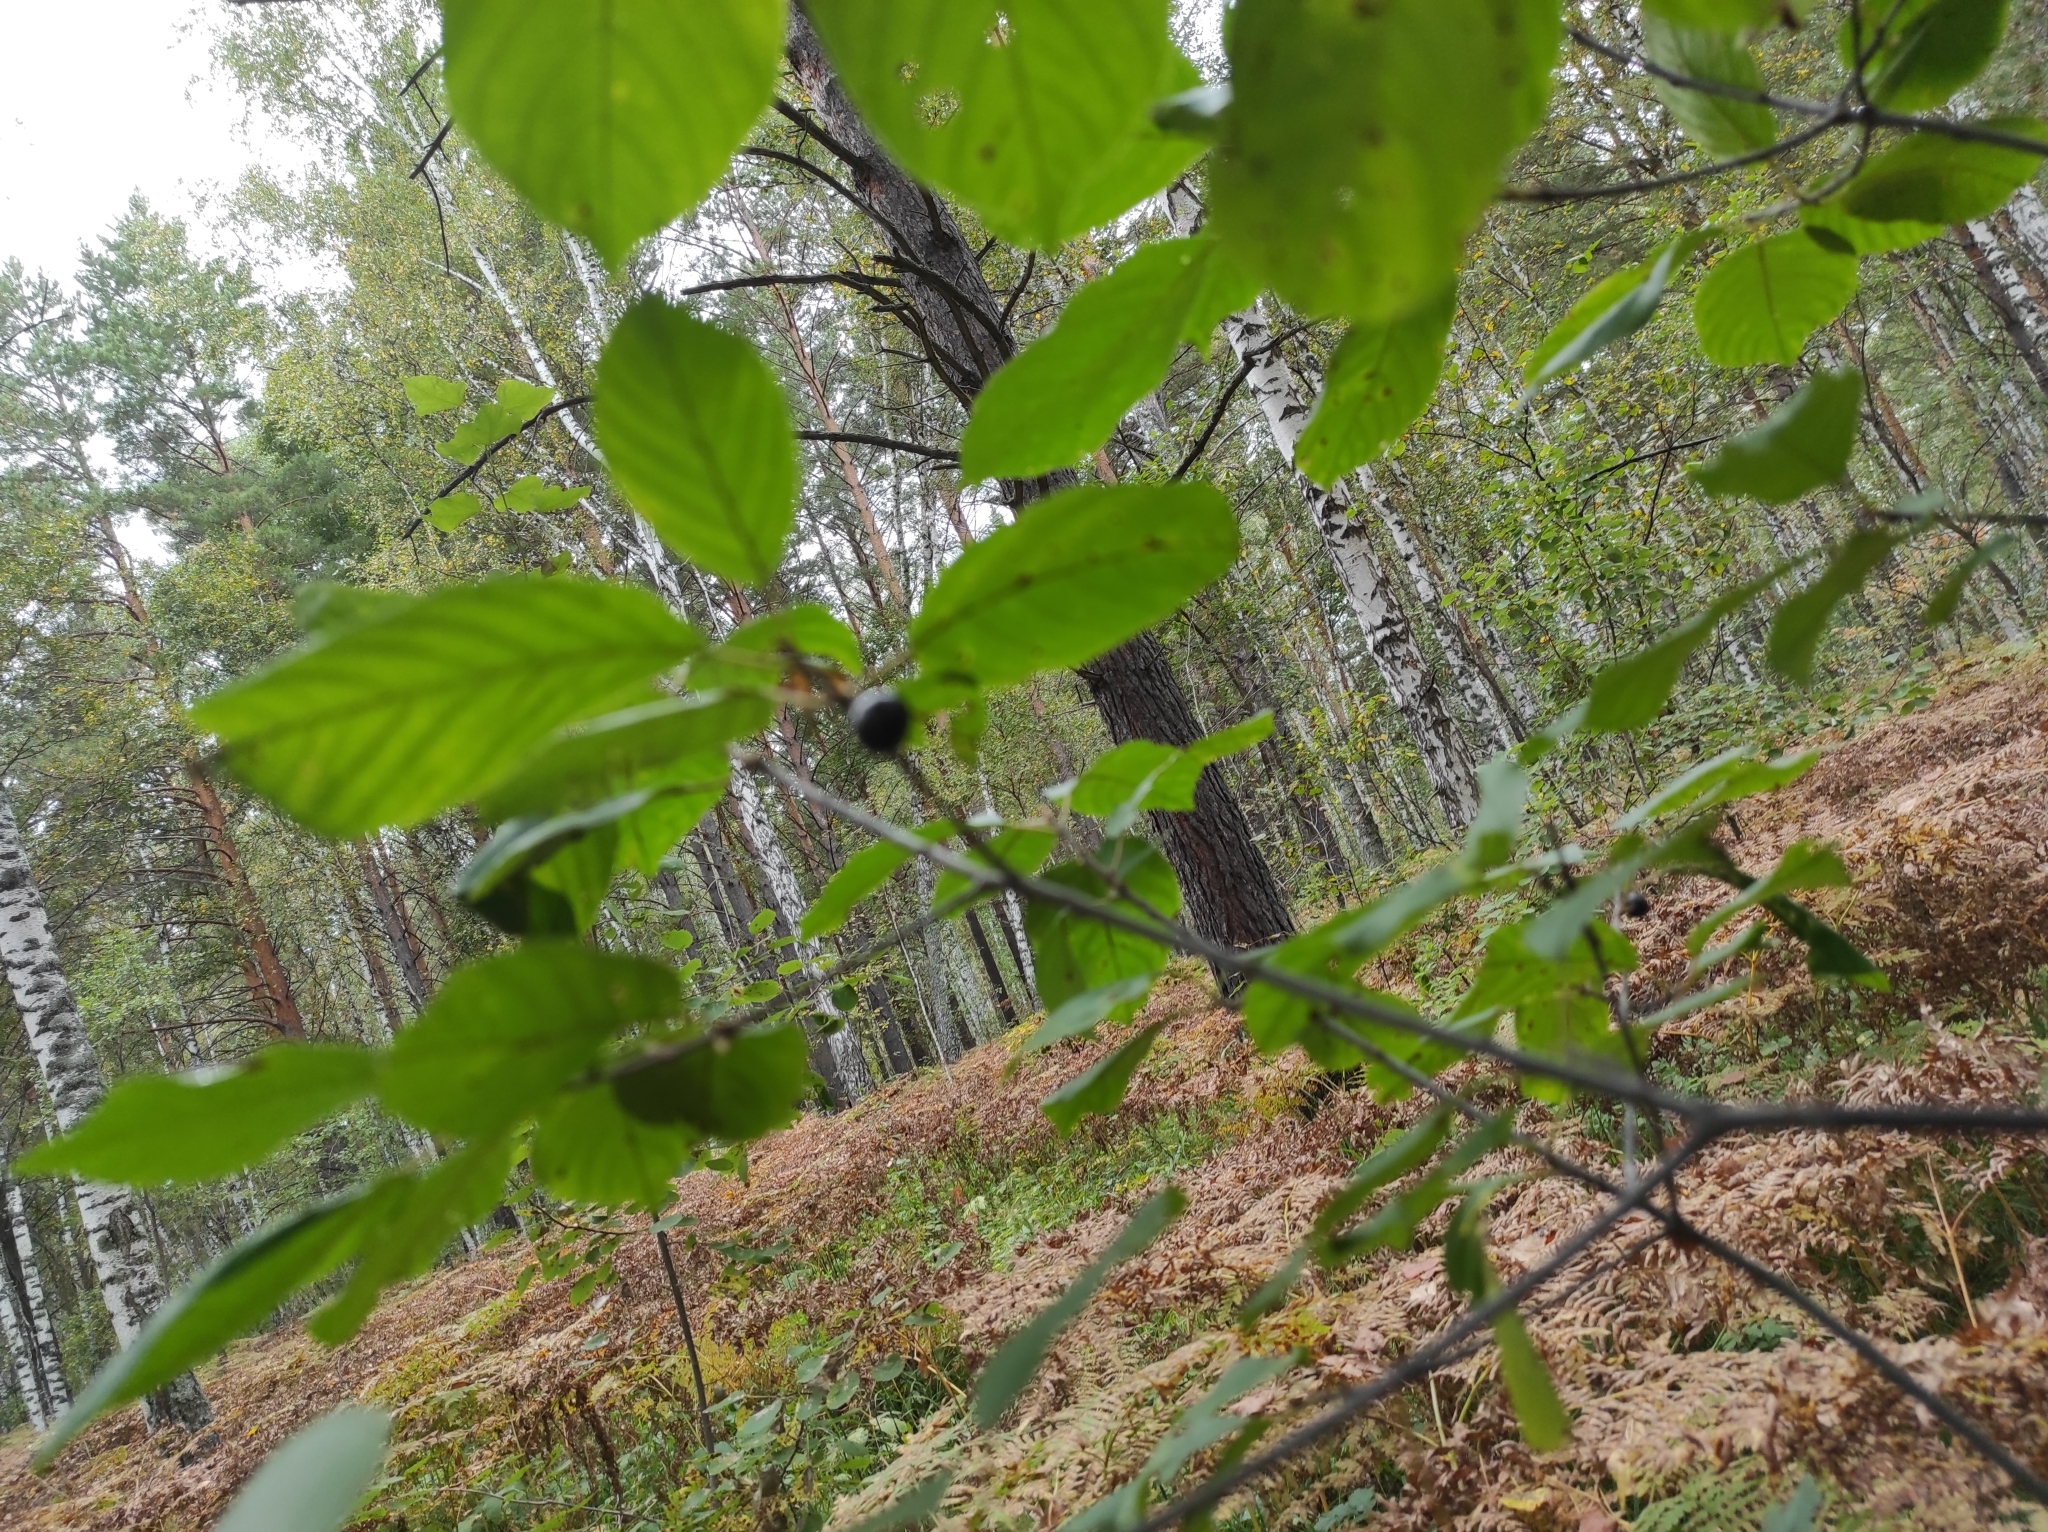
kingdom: Plantae
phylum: Tracheophyta
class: Magnoliopsida
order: Rosales
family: Rhamnaceae
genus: Frangula
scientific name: Frangula alnus
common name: Alder buckthorn
